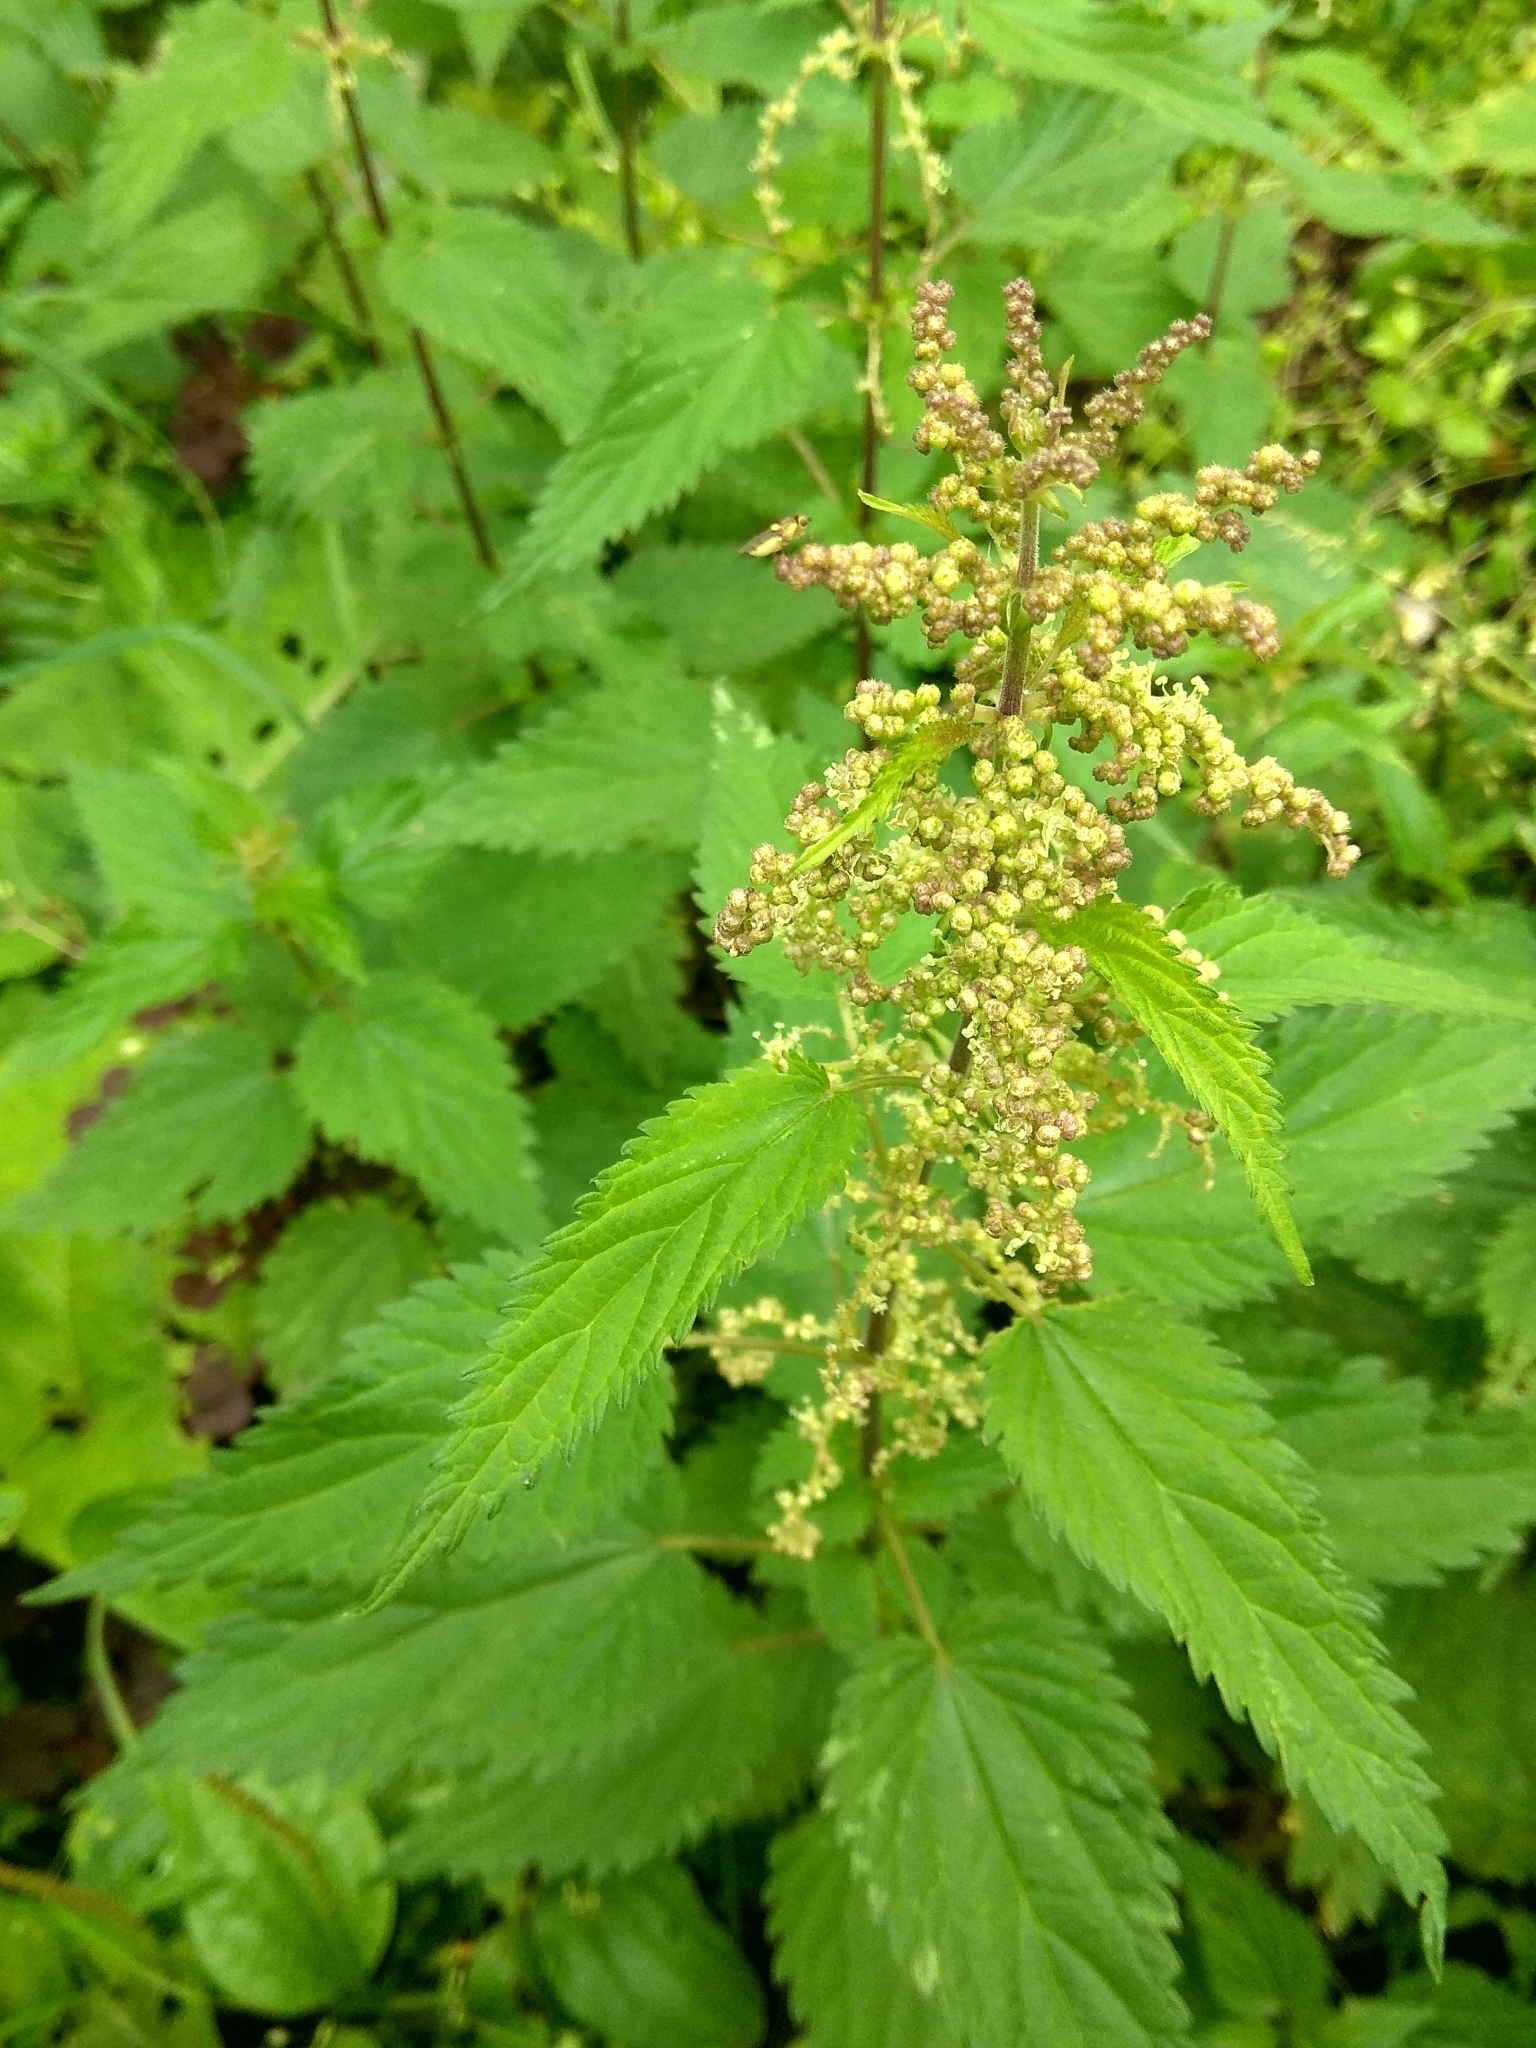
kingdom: Plantae
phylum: Tracheophyta
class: Magnoliopsida
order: Rosales
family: Urticaceae
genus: Urtica
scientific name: Urtica dioica
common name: Common nettle
